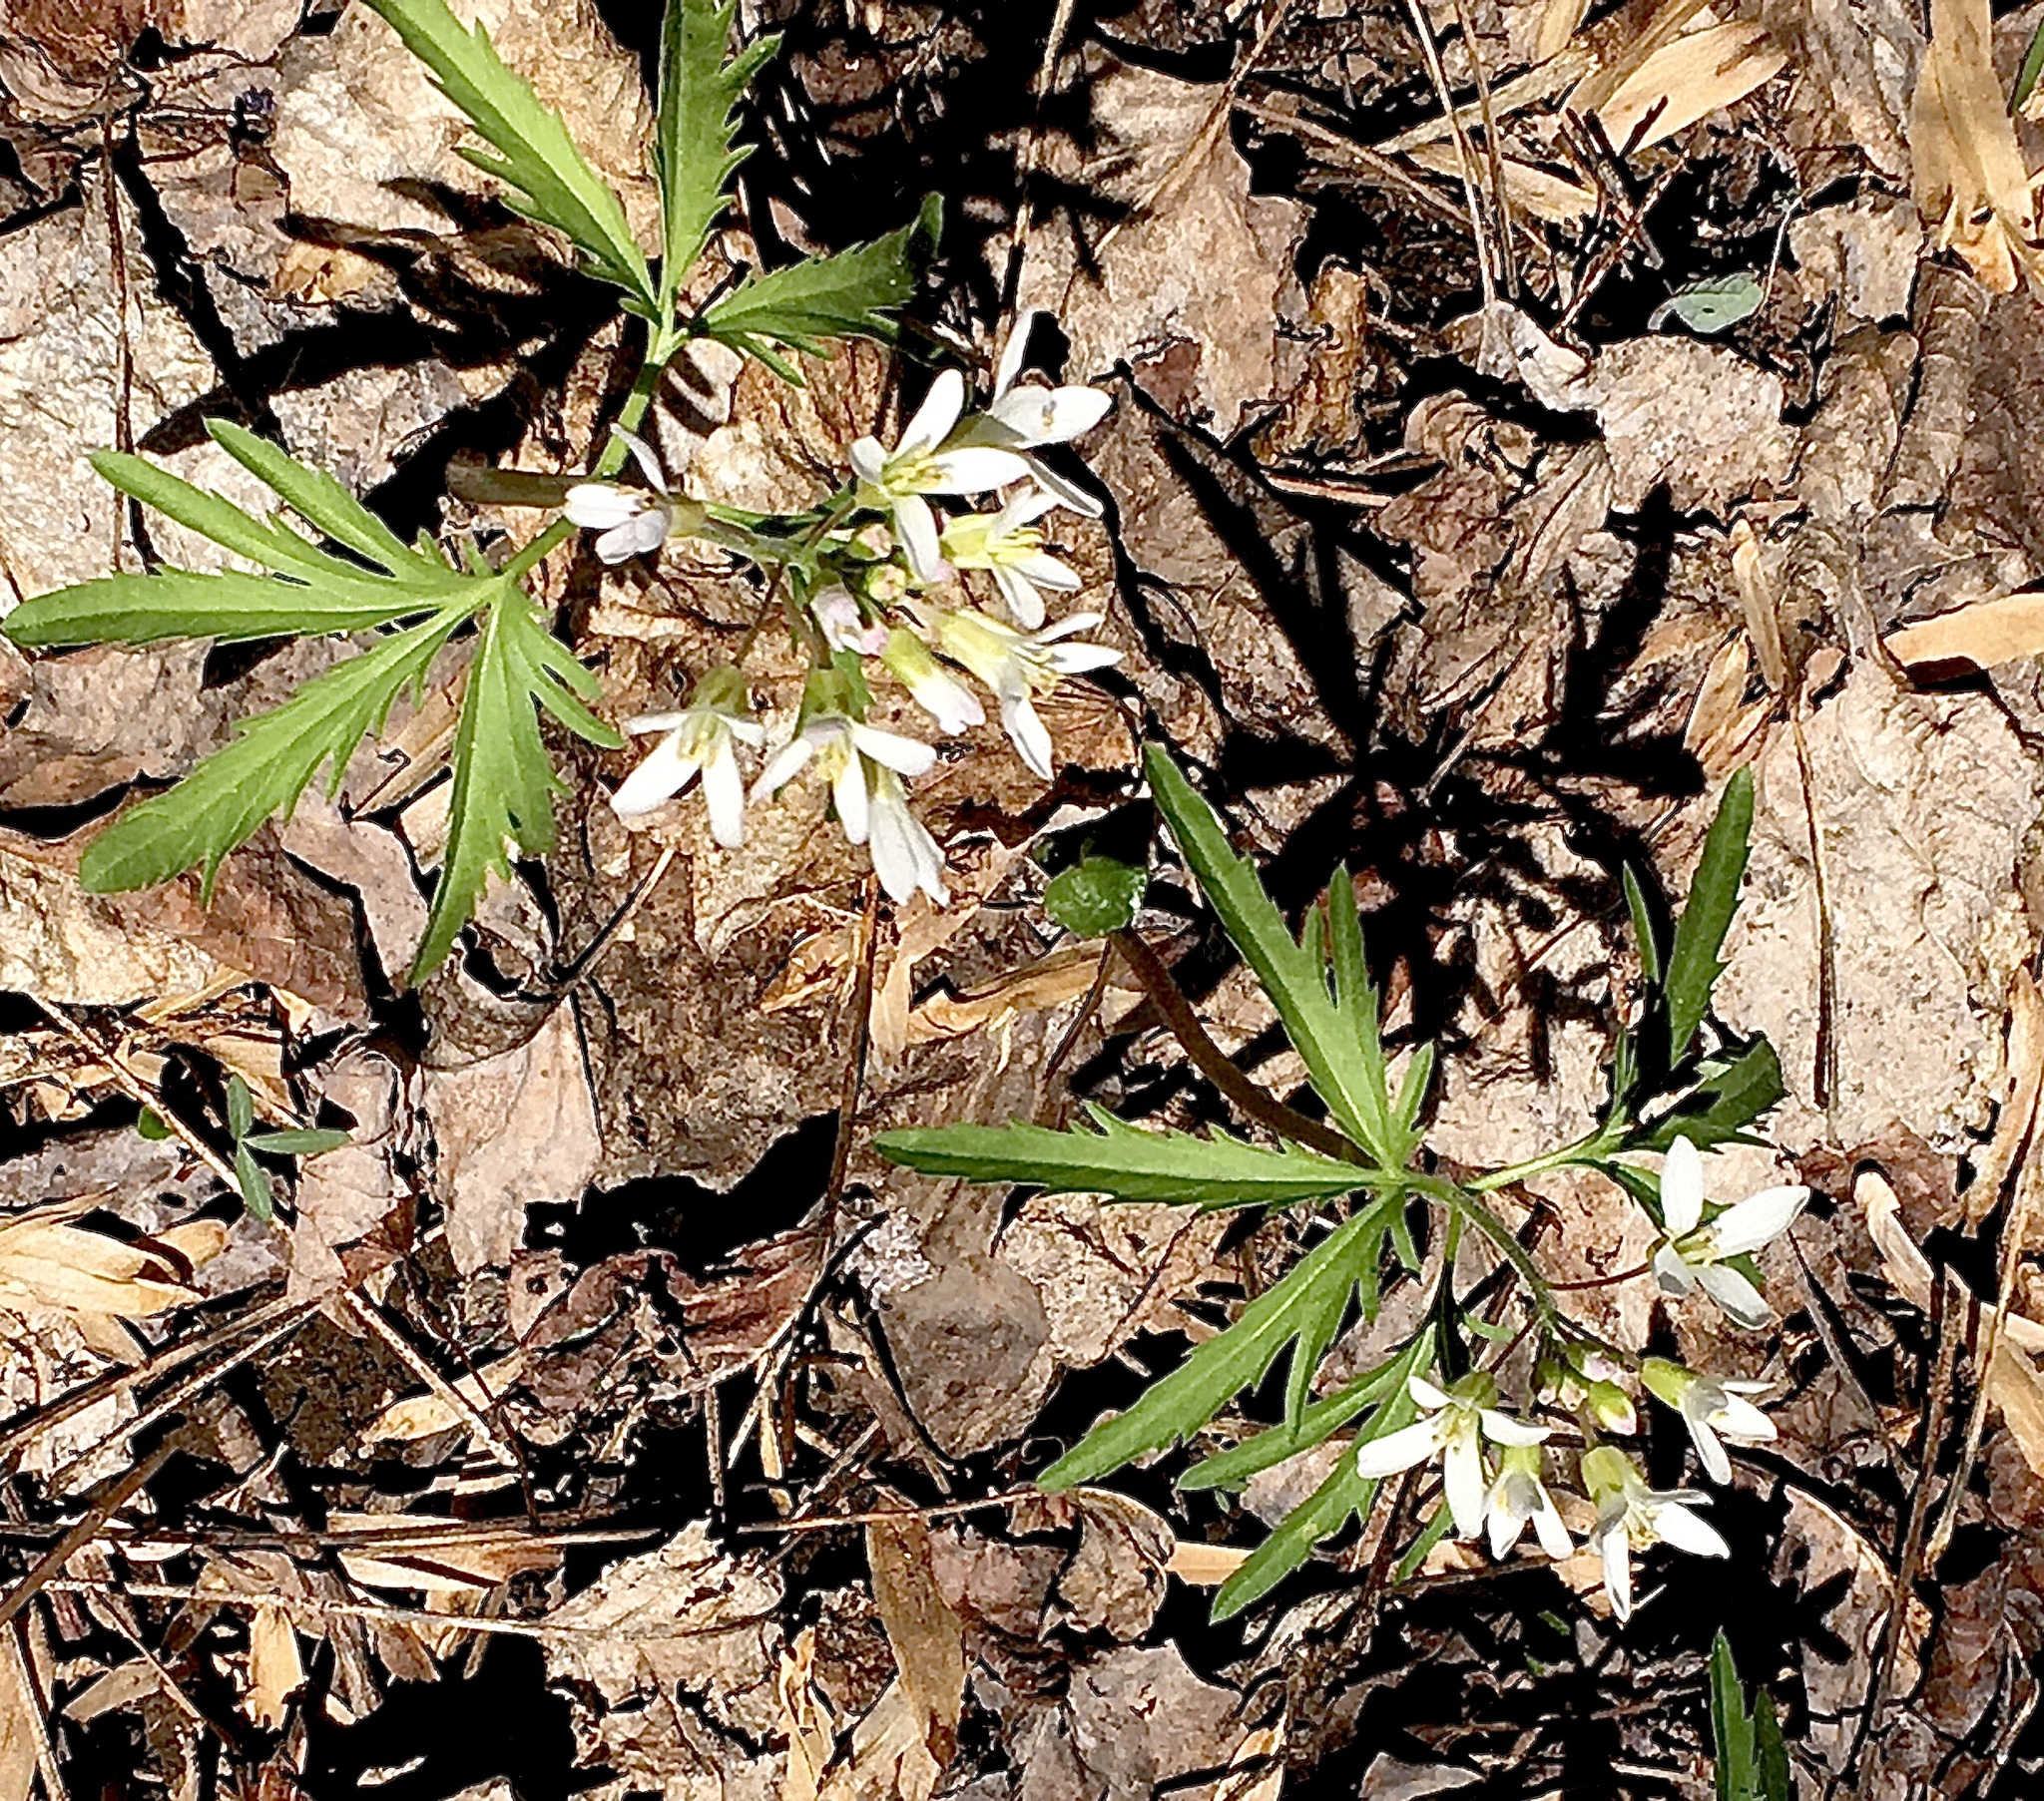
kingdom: Plantae
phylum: Tracheophyta
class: Magnoliopsida
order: Brassicales
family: Brassicaceae
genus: Cardamine
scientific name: Cardamine concatenata
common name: Cut-leaf toothcup
